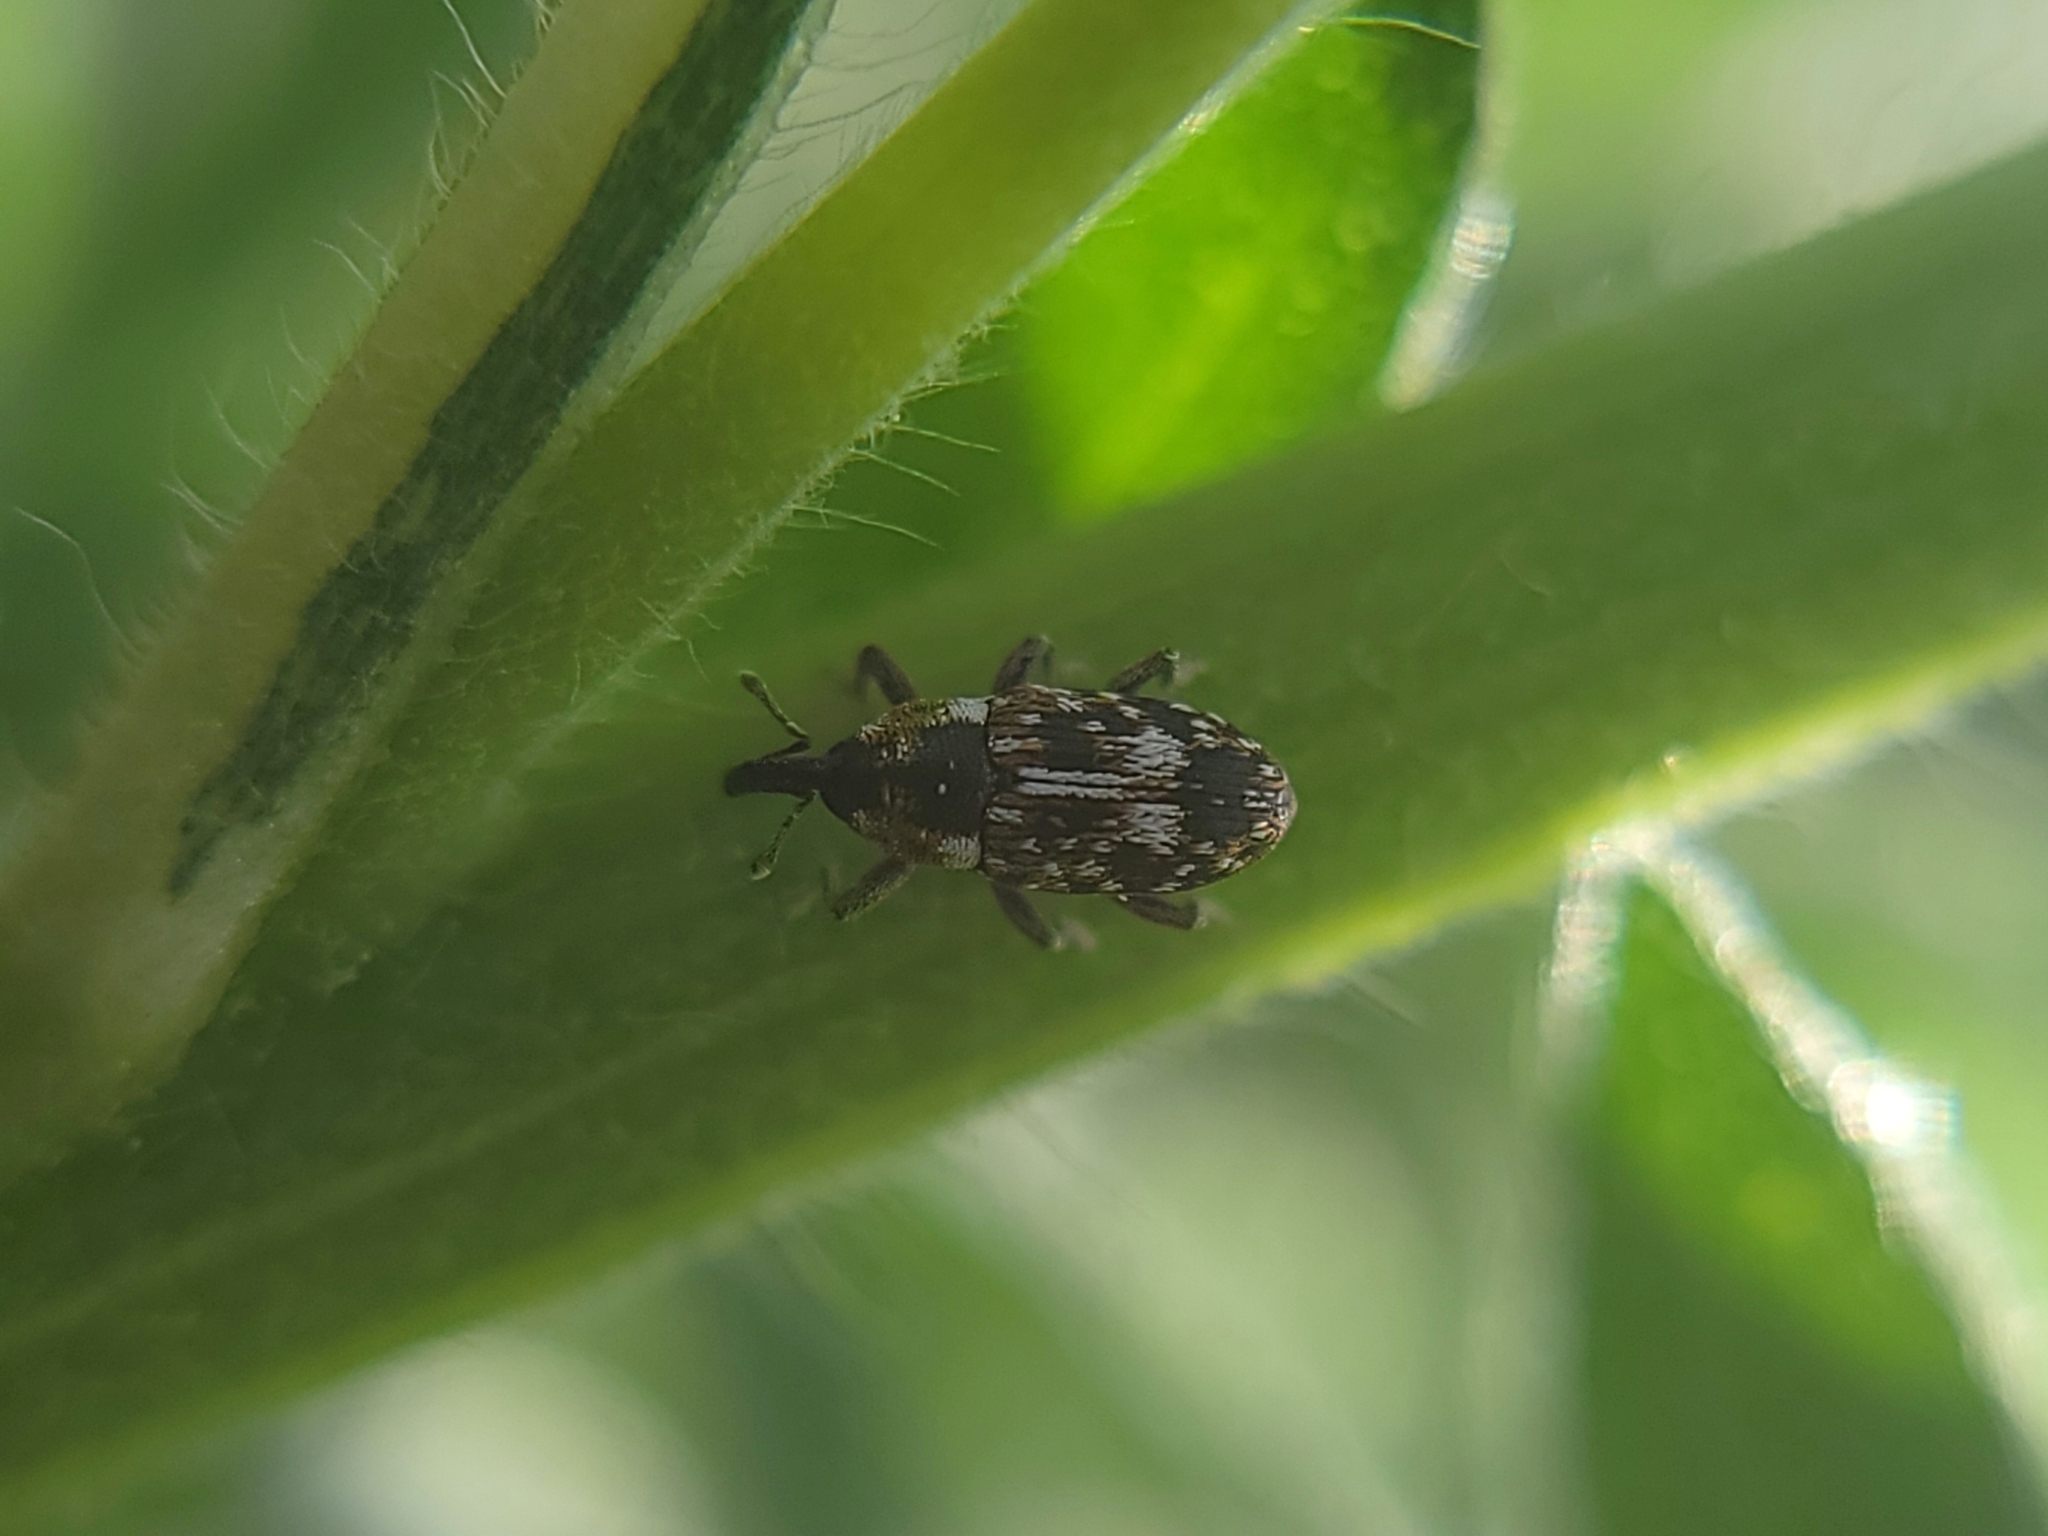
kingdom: Animalia
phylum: Arthropoda
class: Insecta
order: Coleoptera
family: Curculionidae
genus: Cosmobaris
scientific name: Cosmobaris scolopacea
